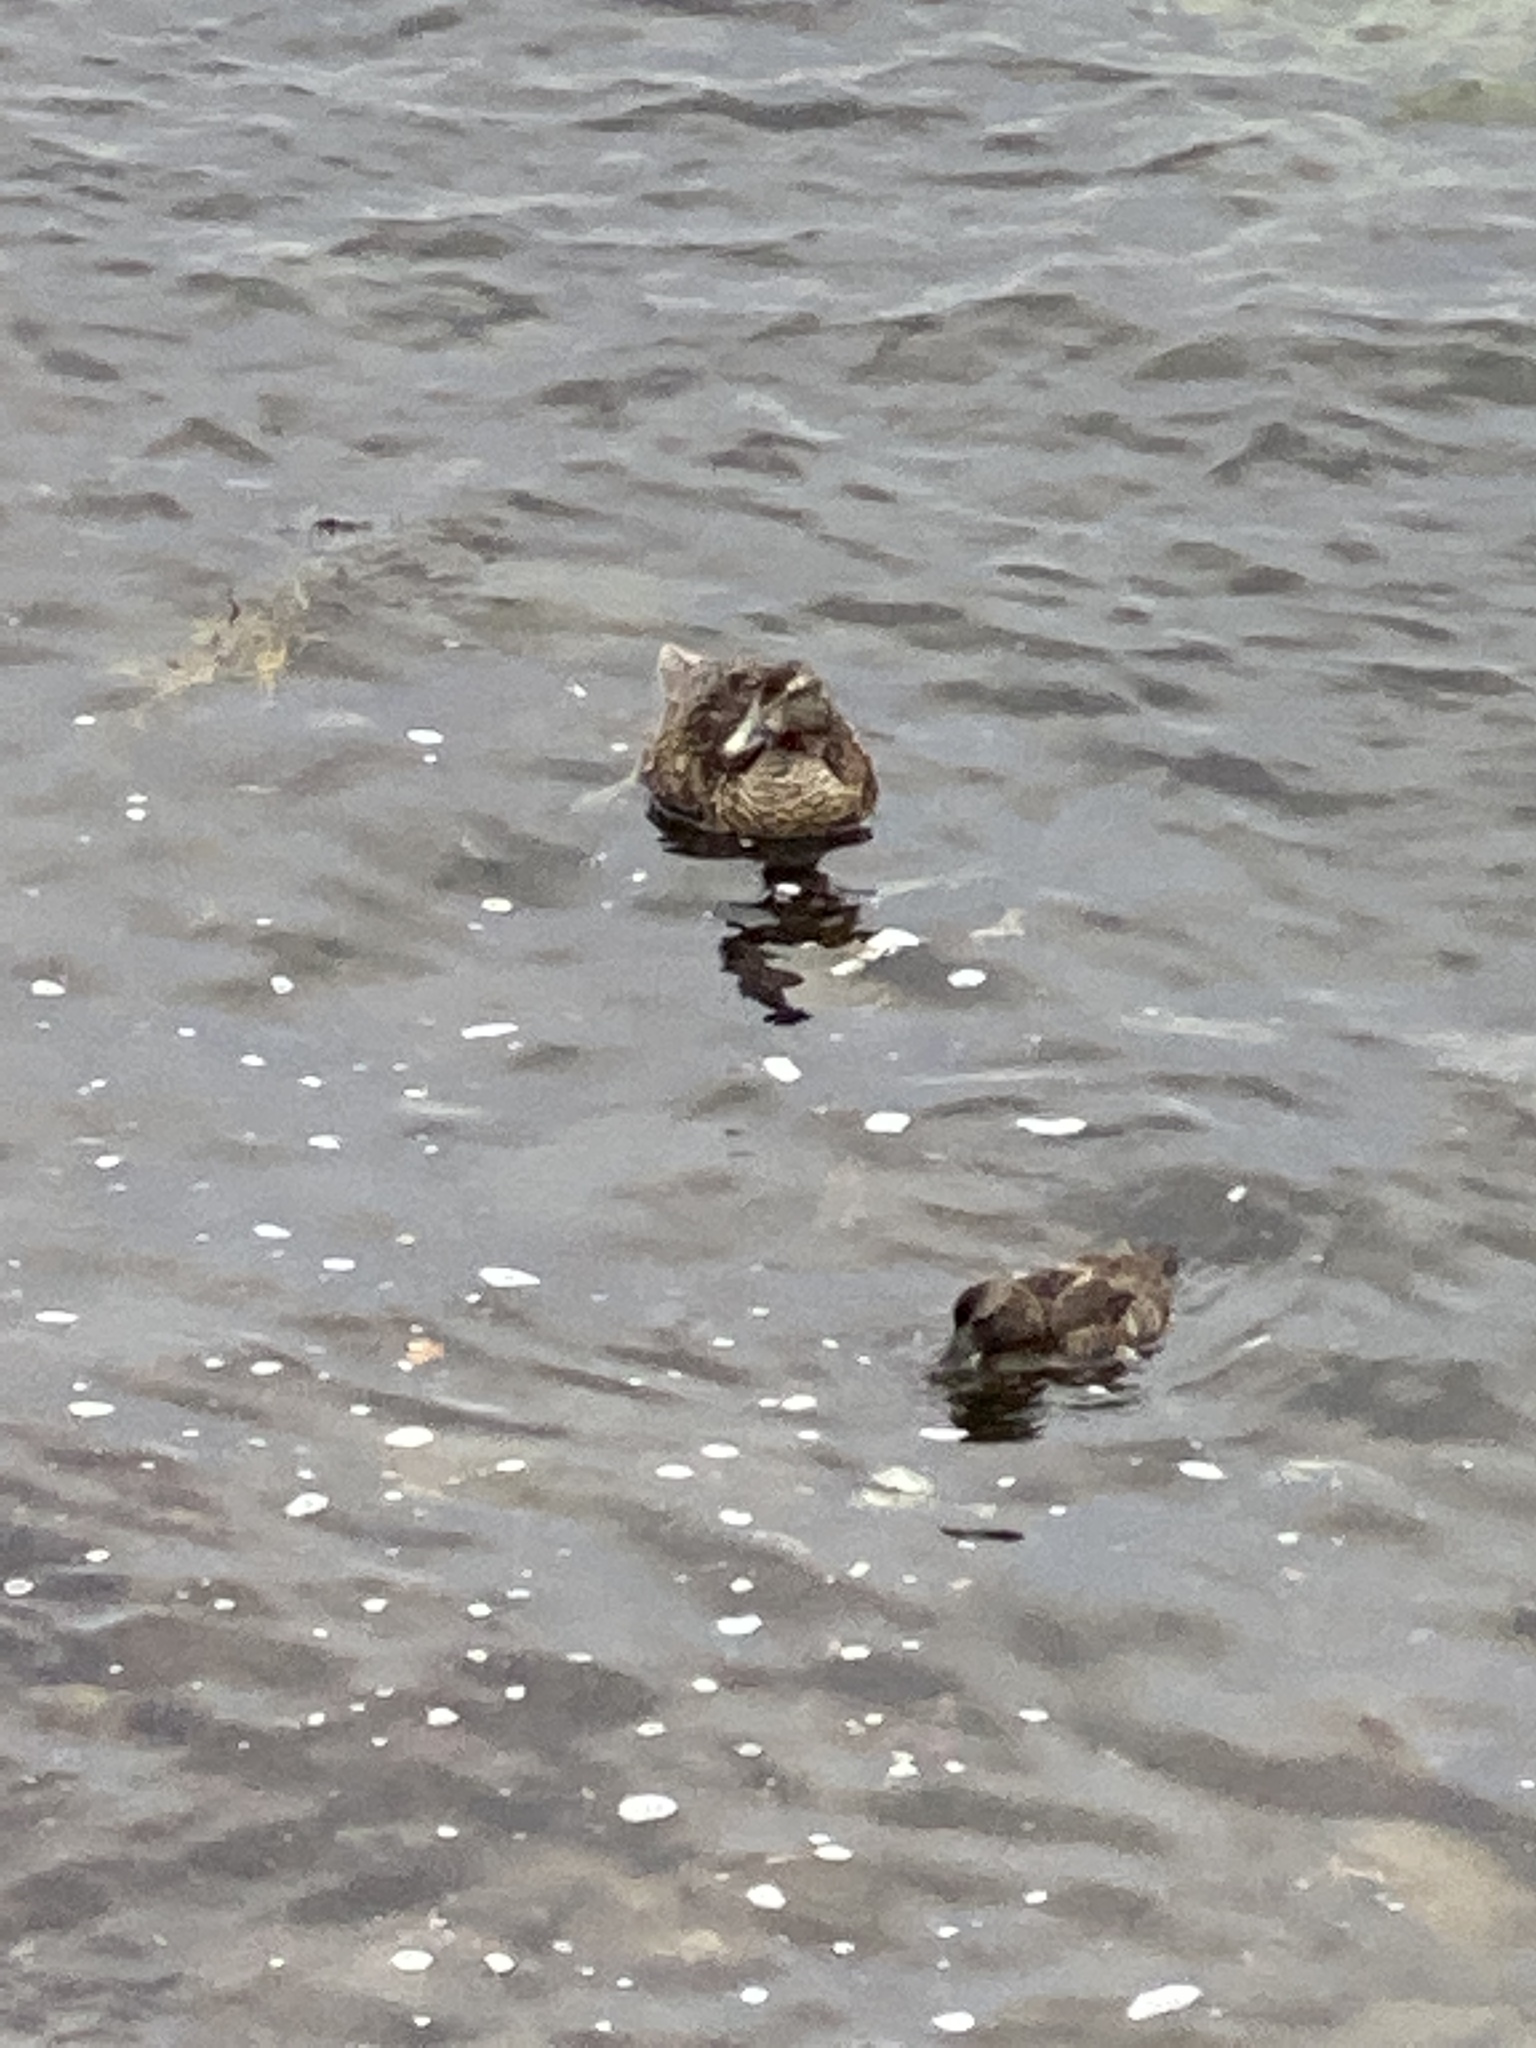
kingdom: Animalia
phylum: Chordata
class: Aves
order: Anseriformes
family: Anatidae
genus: Somateria
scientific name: Somateria mollissima
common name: Common eider
